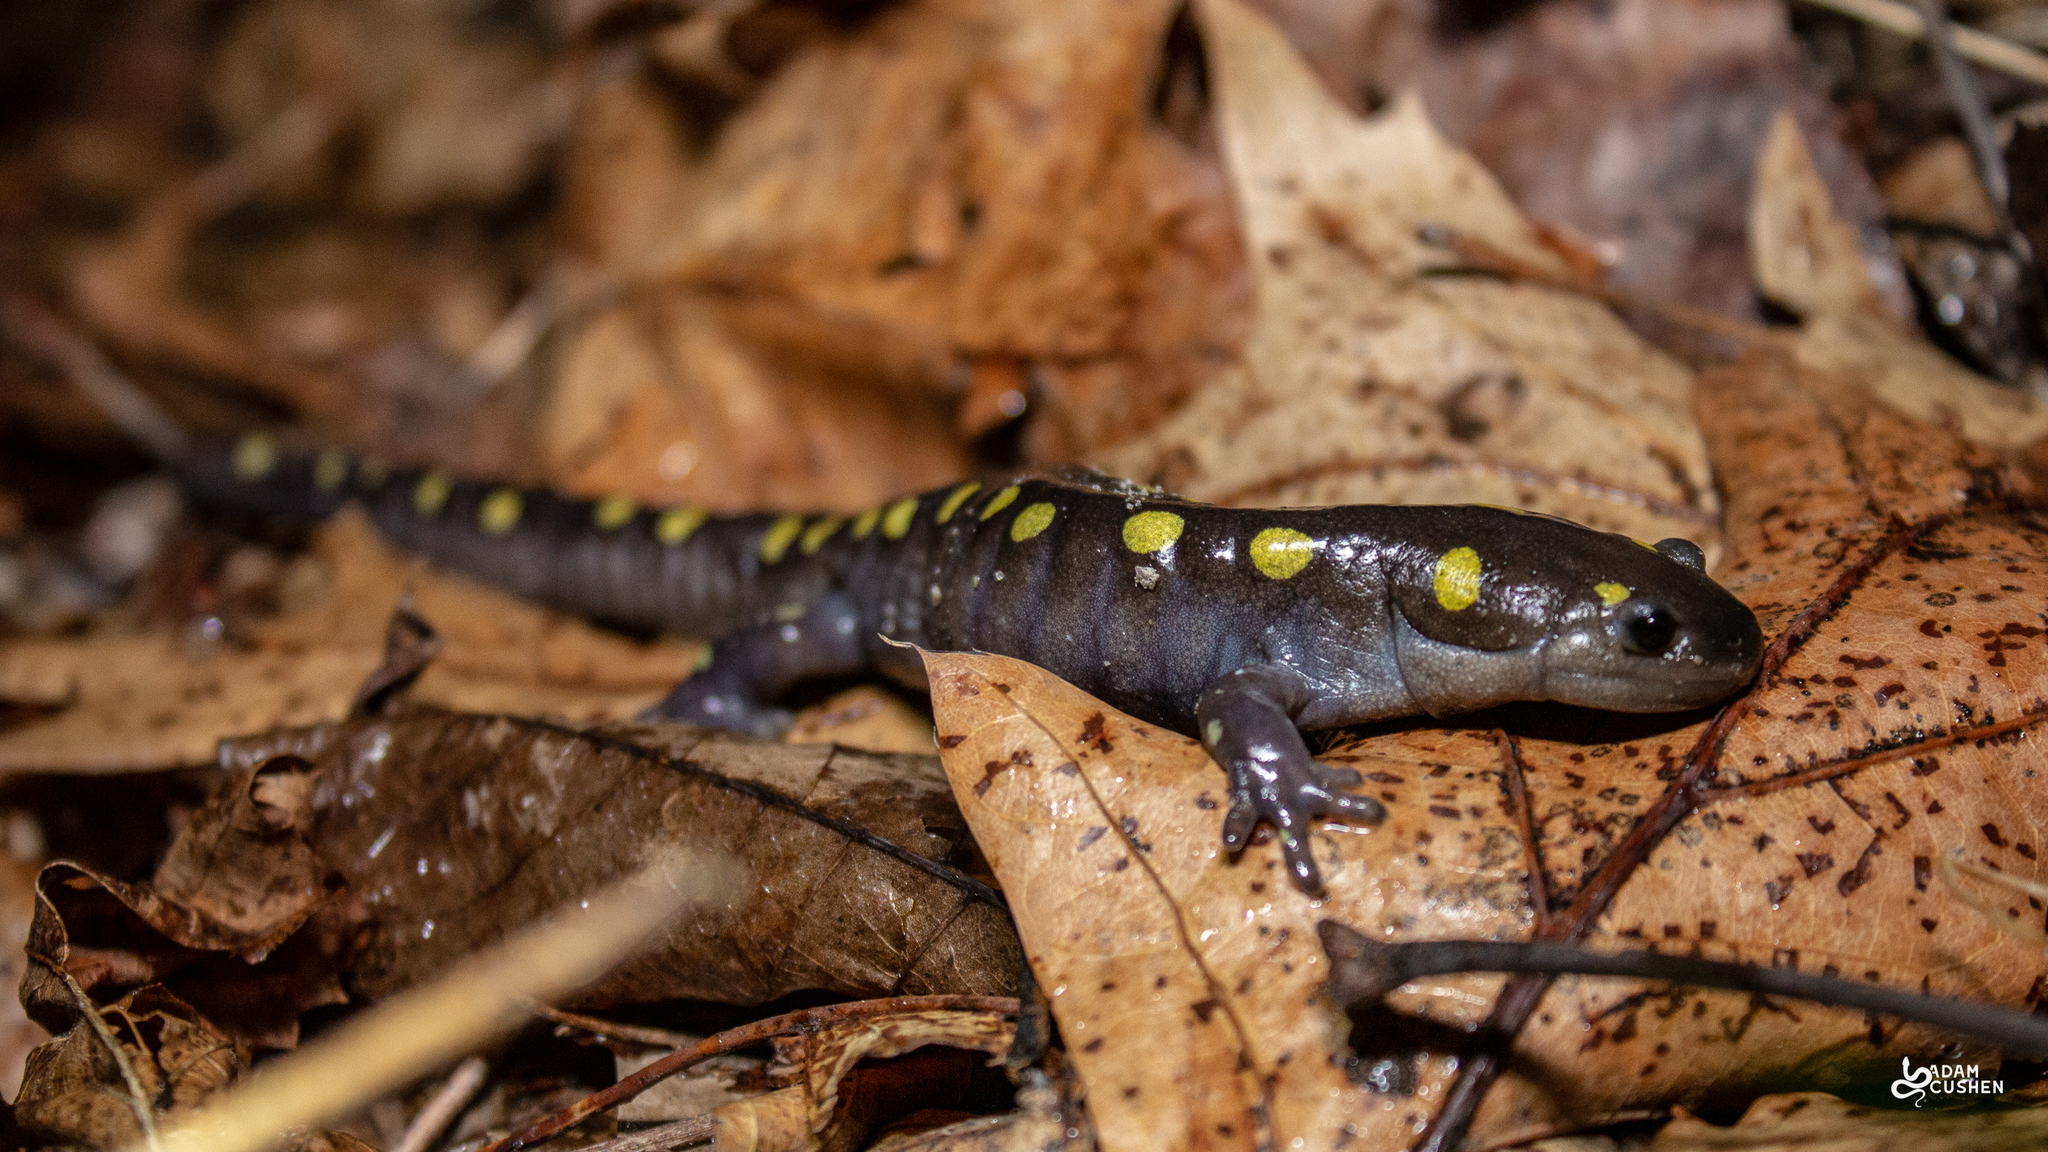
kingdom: Animalia
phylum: Chordata
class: Amphibia
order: Caudata
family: Ambystomatidae
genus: Ambystoma
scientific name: Ambystoma maculatum
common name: Spotted salamander
